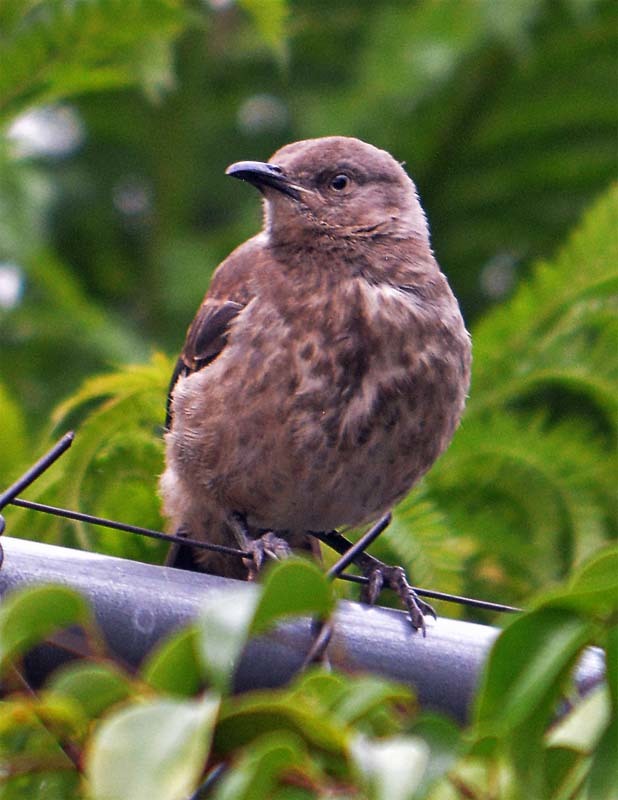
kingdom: Animalia
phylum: Chordata
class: Aves
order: Passeriformes
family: Mimidae
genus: Toxostoma
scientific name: Toxostoma curvirostre
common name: Curve-billed thrasher
